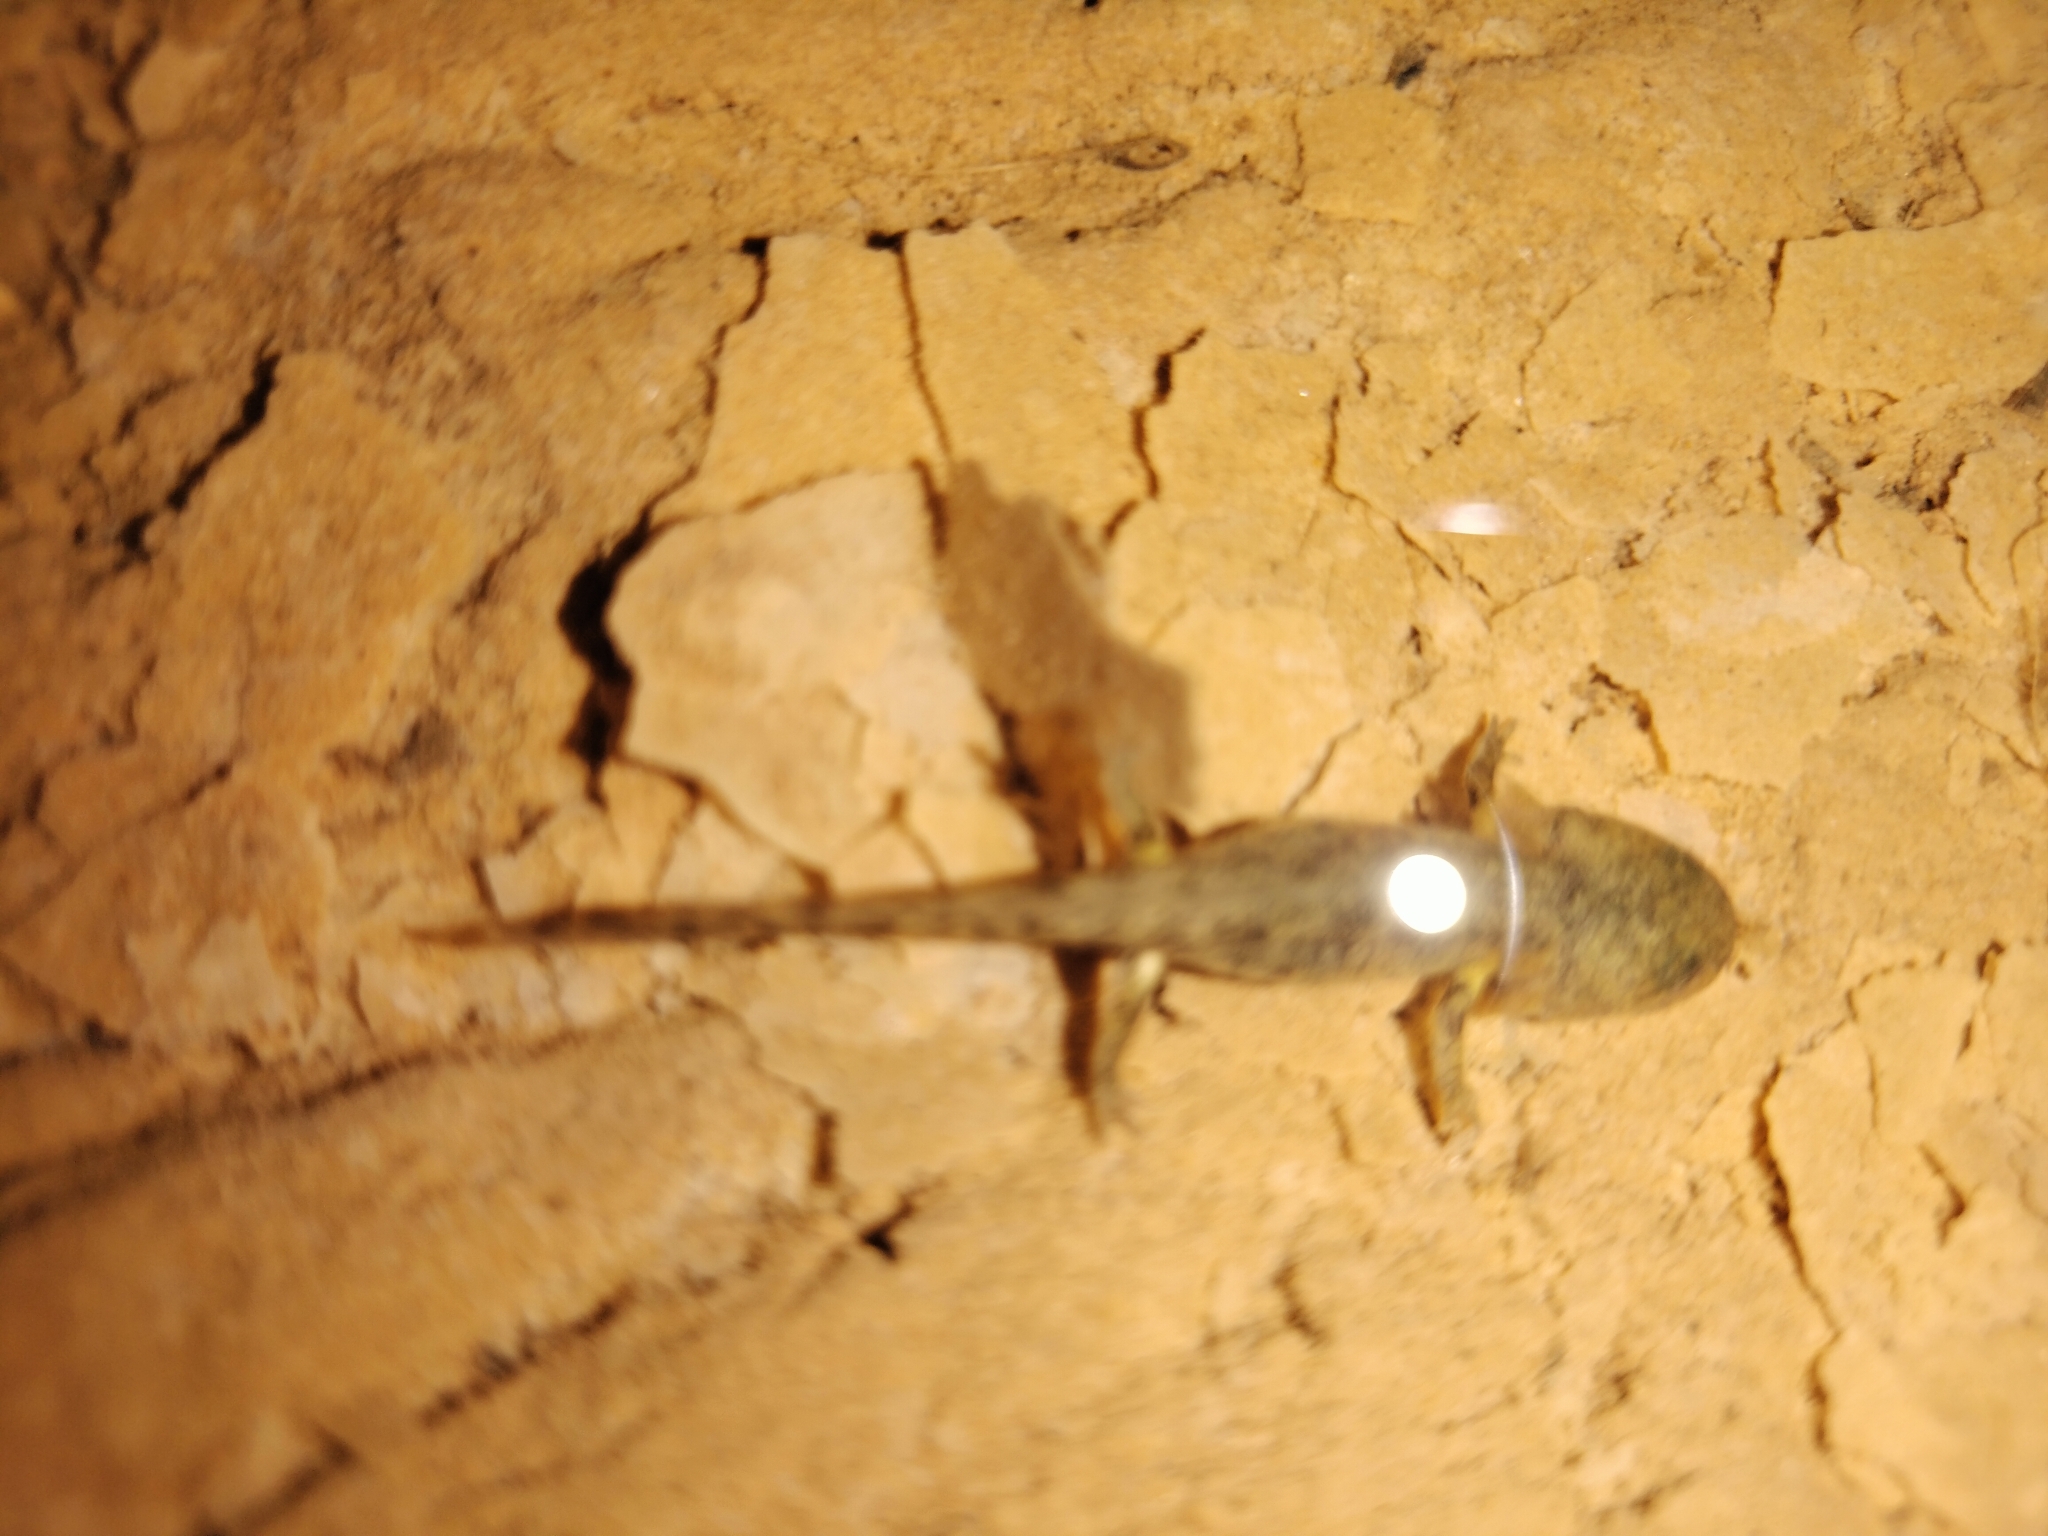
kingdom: Animalia
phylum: Chordata
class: Amphibia
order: Caudata
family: Salamandridae
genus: Salamandra
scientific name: Salamandra salamandra
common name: Fire salamander
